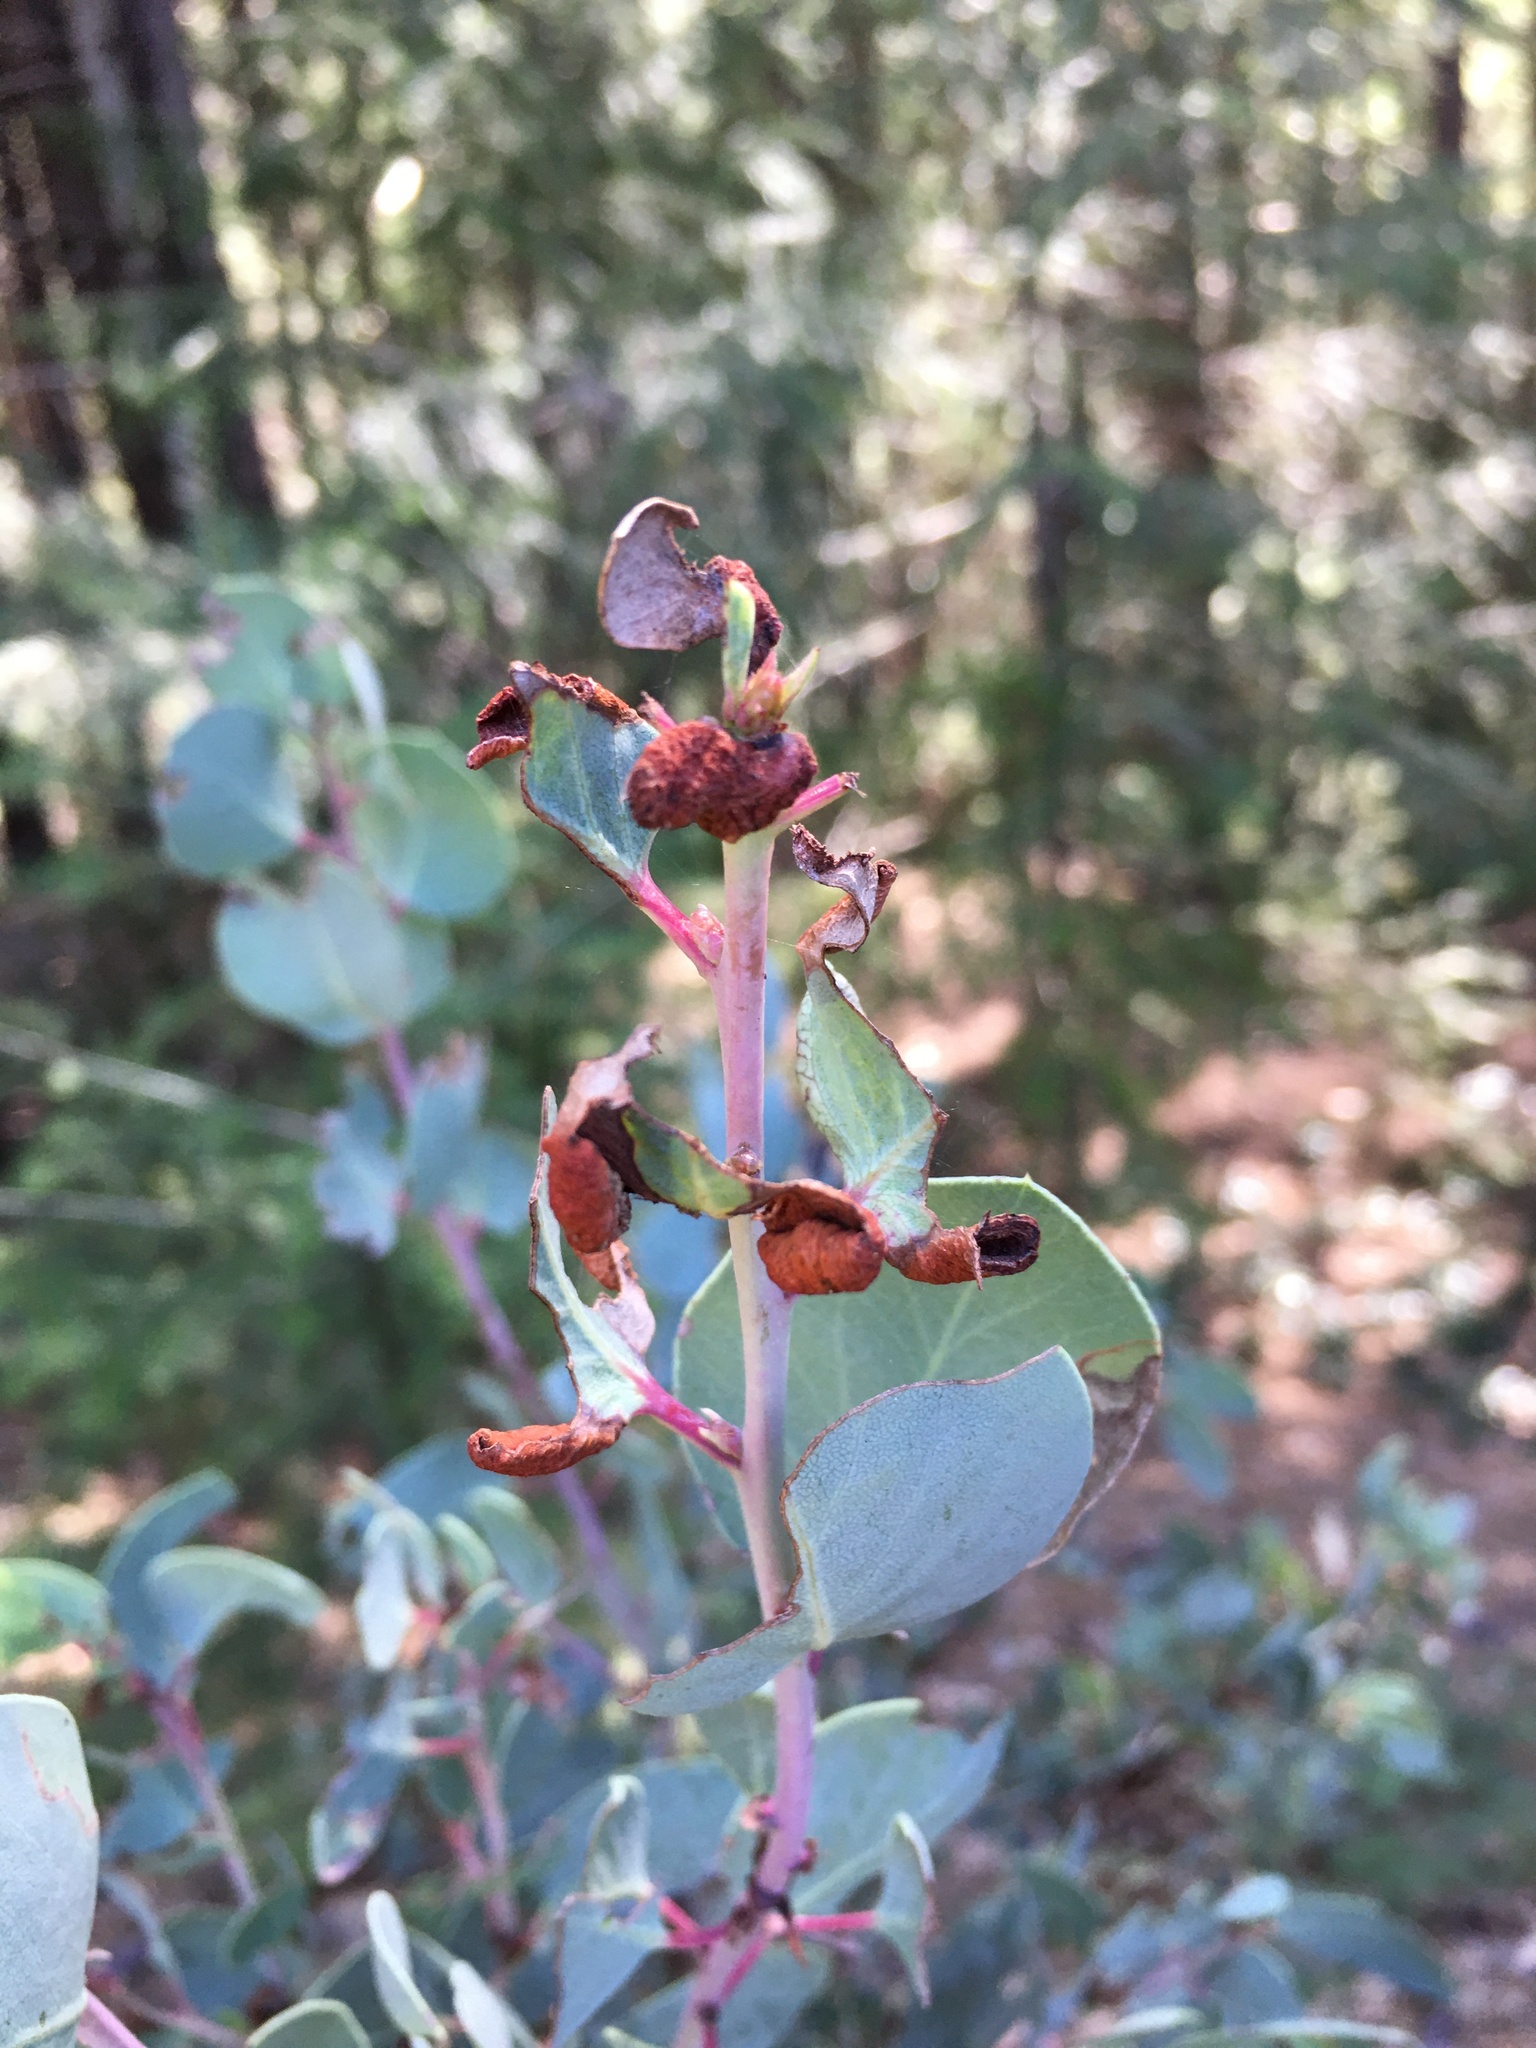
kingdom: Animalia
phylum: Arthropoda
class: Insecta
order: Hemiptera
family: Aphididae
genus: Tamalia
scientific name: Tamalia coweni
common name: Manzanita leafgall aphid
